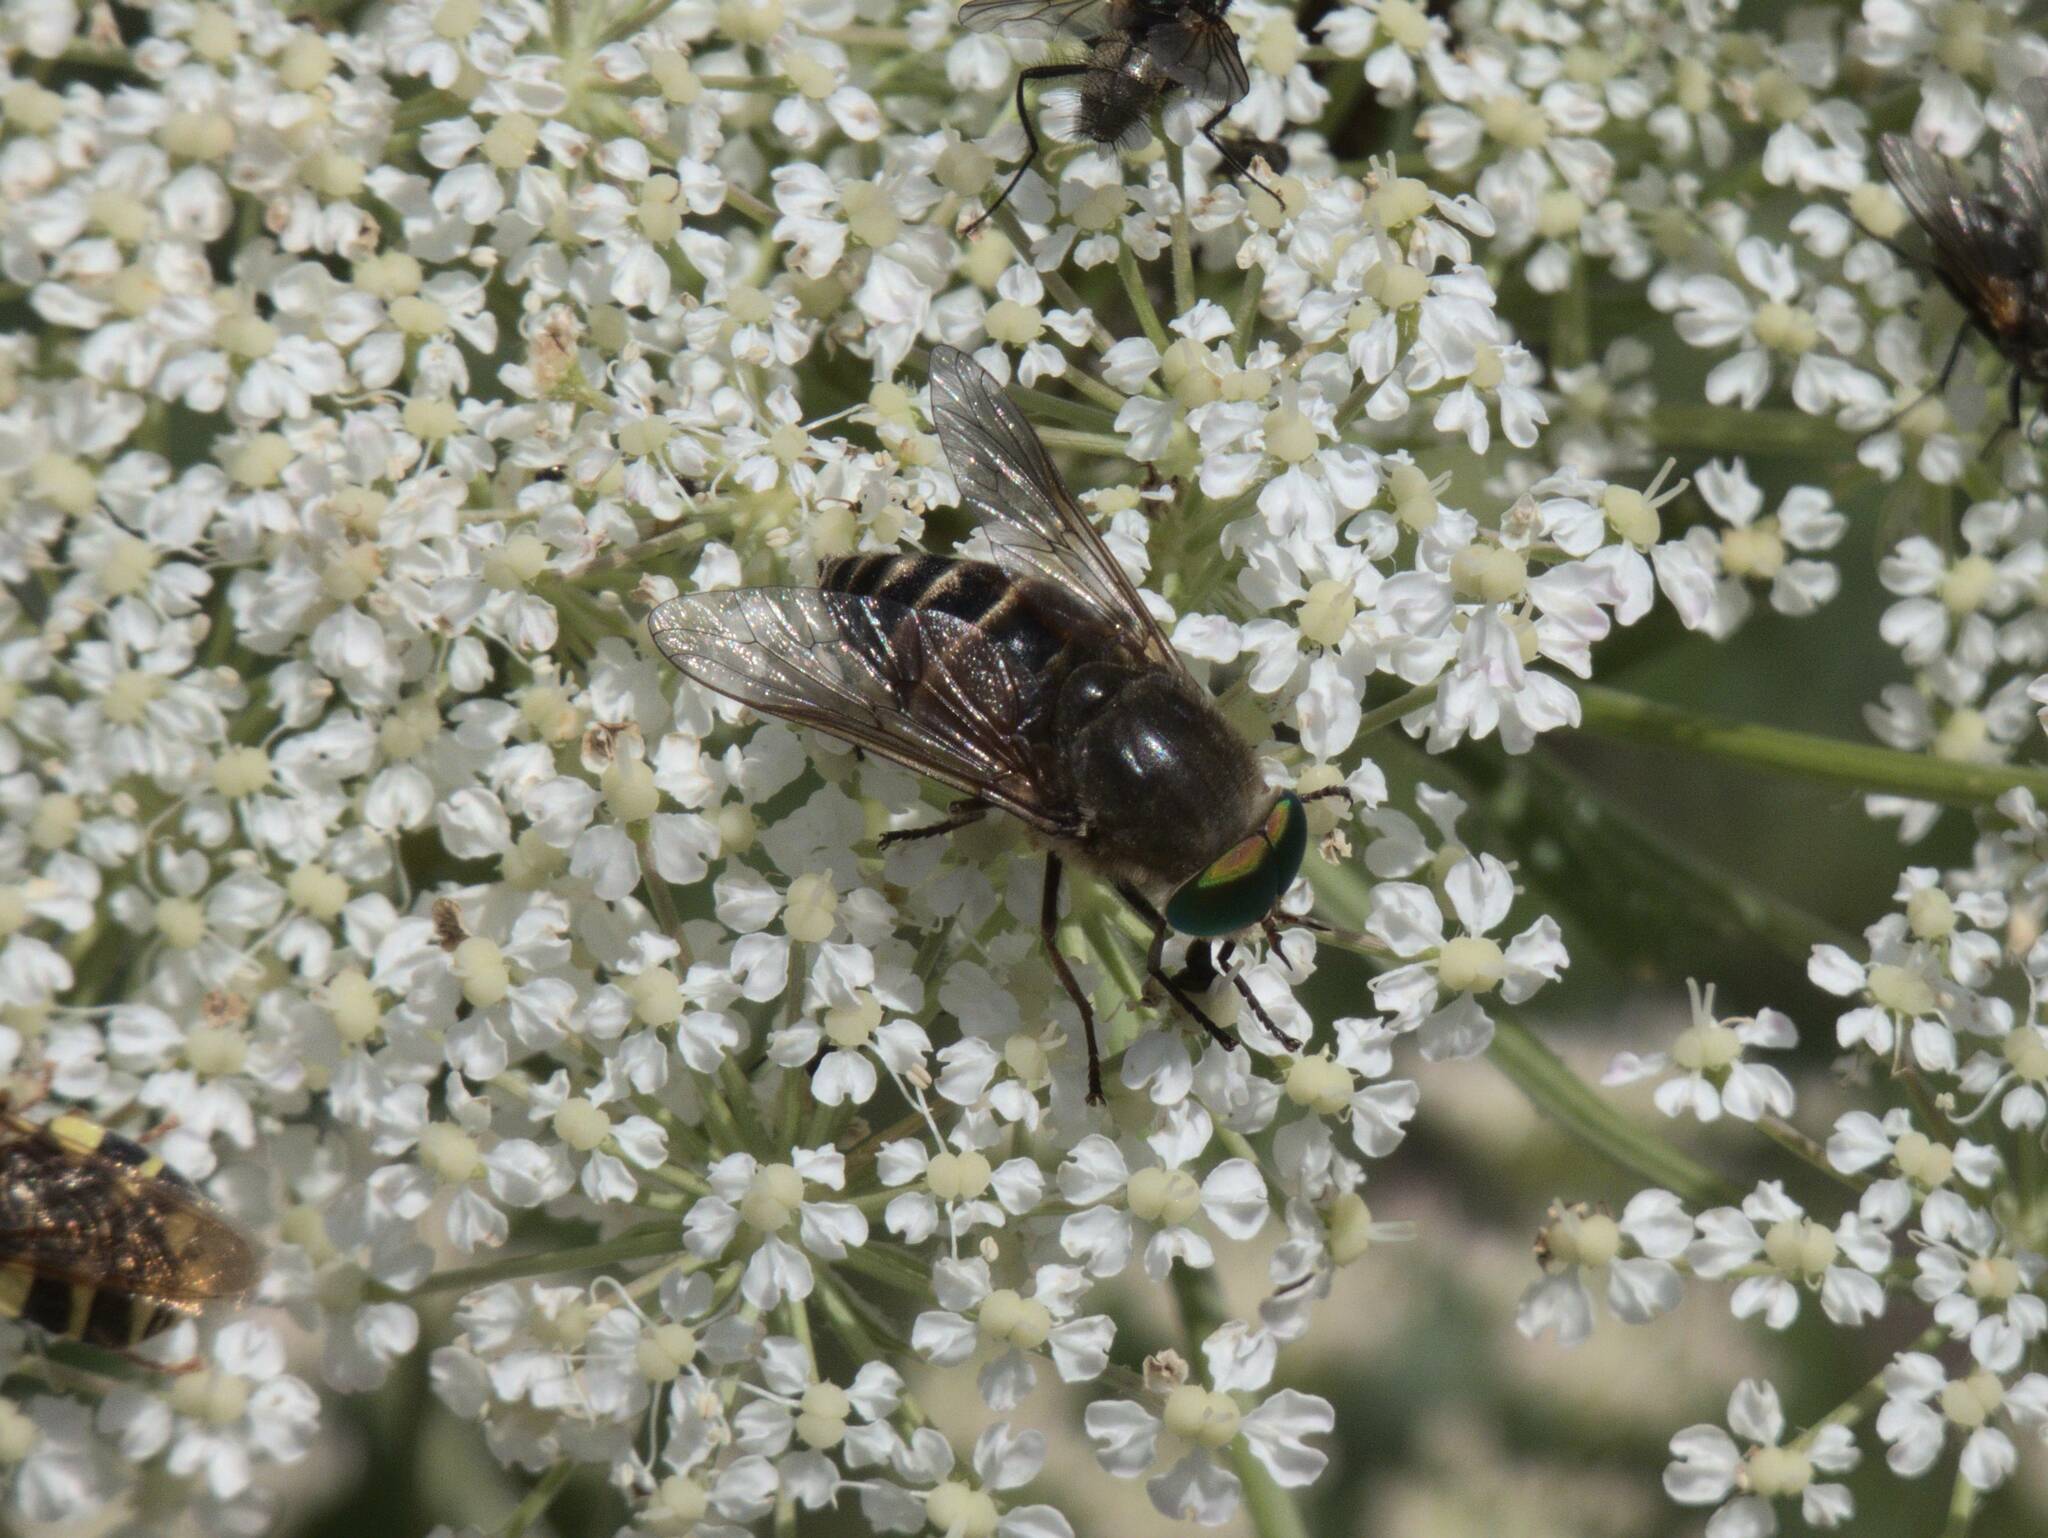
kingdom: Animalia
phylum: Arthropoda
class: Insecta
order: Diptera
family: Tabanidae
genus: Philipomyia
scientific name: Philipomyia aprica
